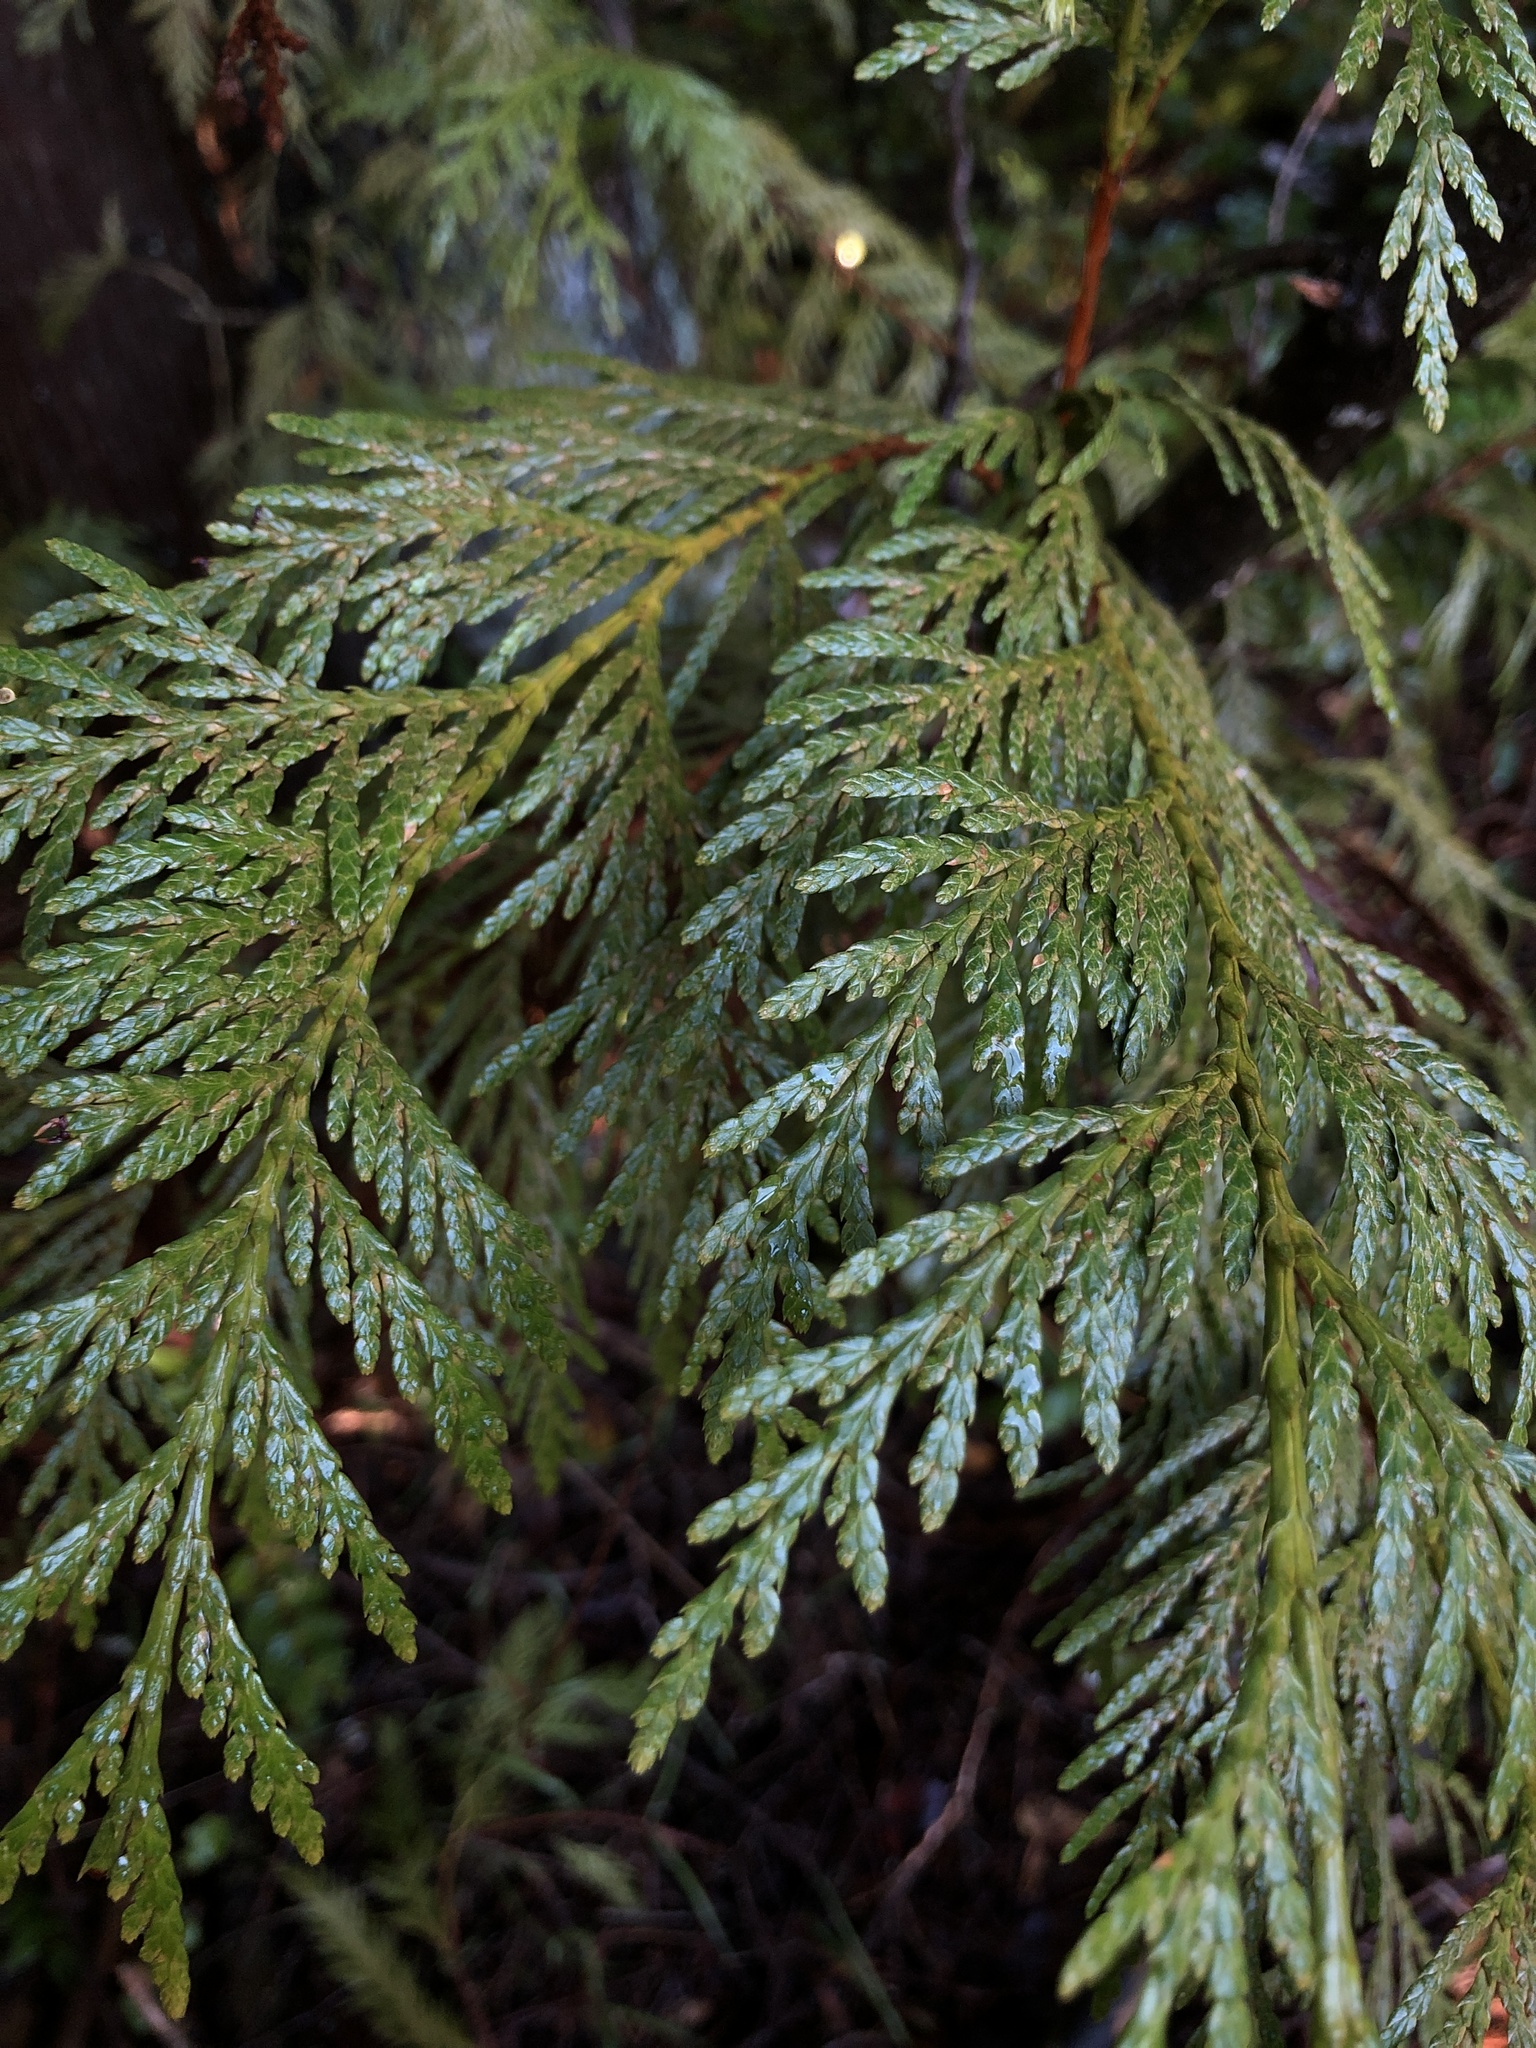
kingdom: Plantae
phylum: Tracheophyta
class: Pinopsida
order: Pinales
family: Cupressaceae
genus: Thuja
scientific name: Thuja plicata
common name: Western red-cedar
